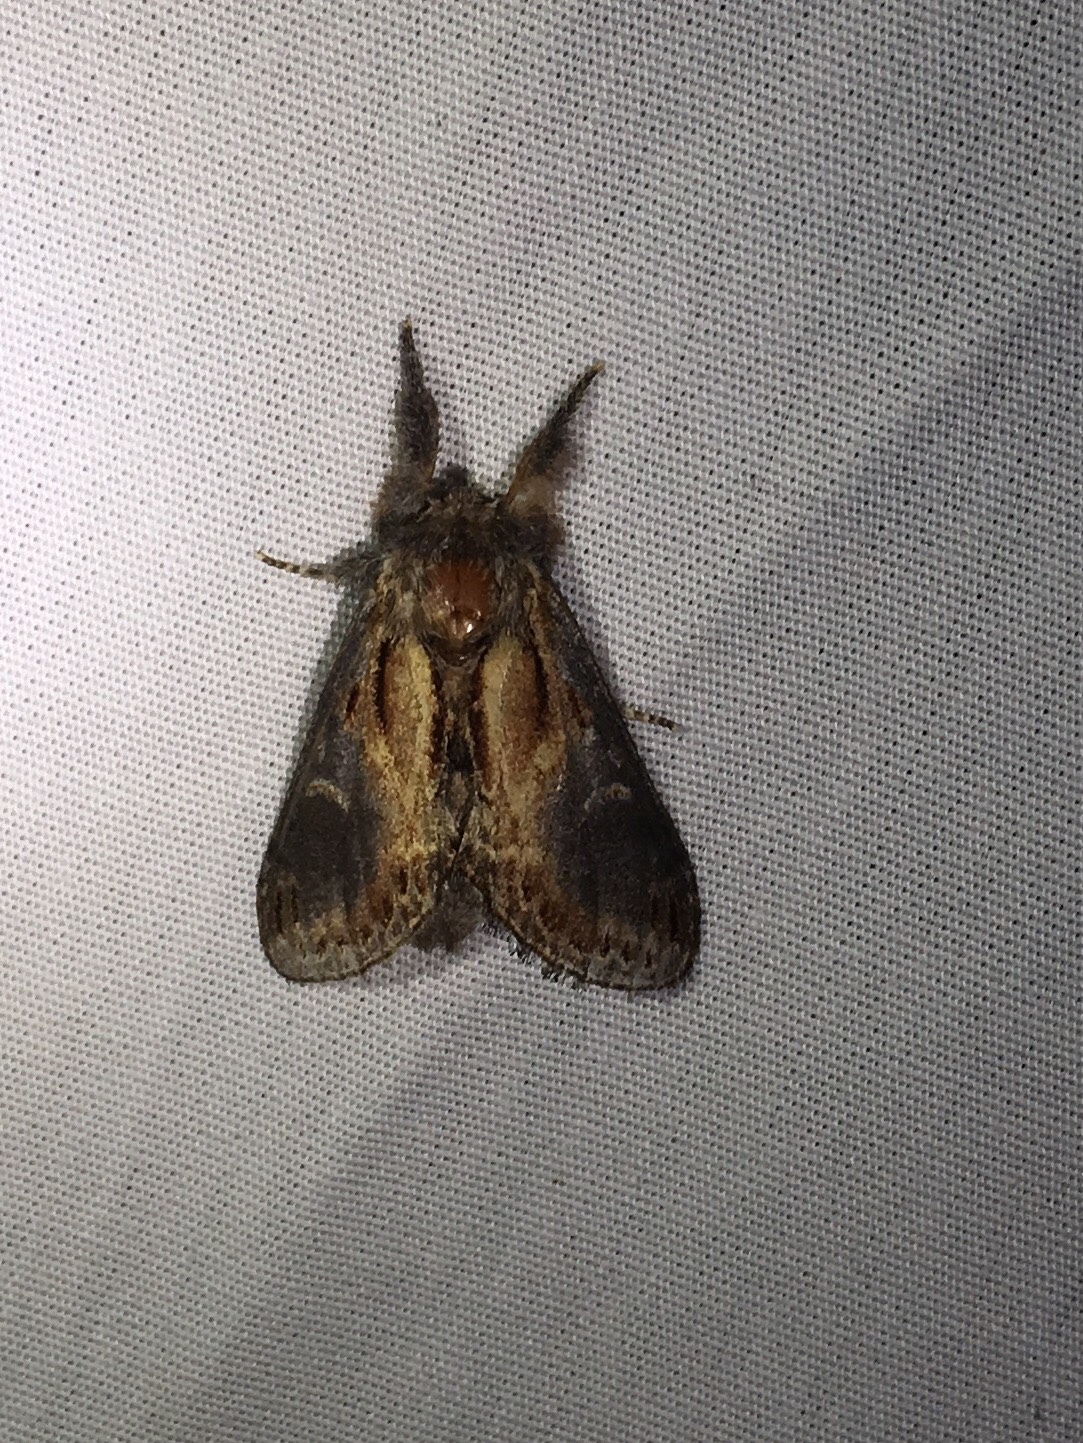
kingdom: Animalia
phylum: Arthropoda
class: Insecta
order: Lepidoptera
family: Notodontidae
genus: Notodonta
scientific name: Notodonta scitipennis
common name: Finned-willow prominent moth
